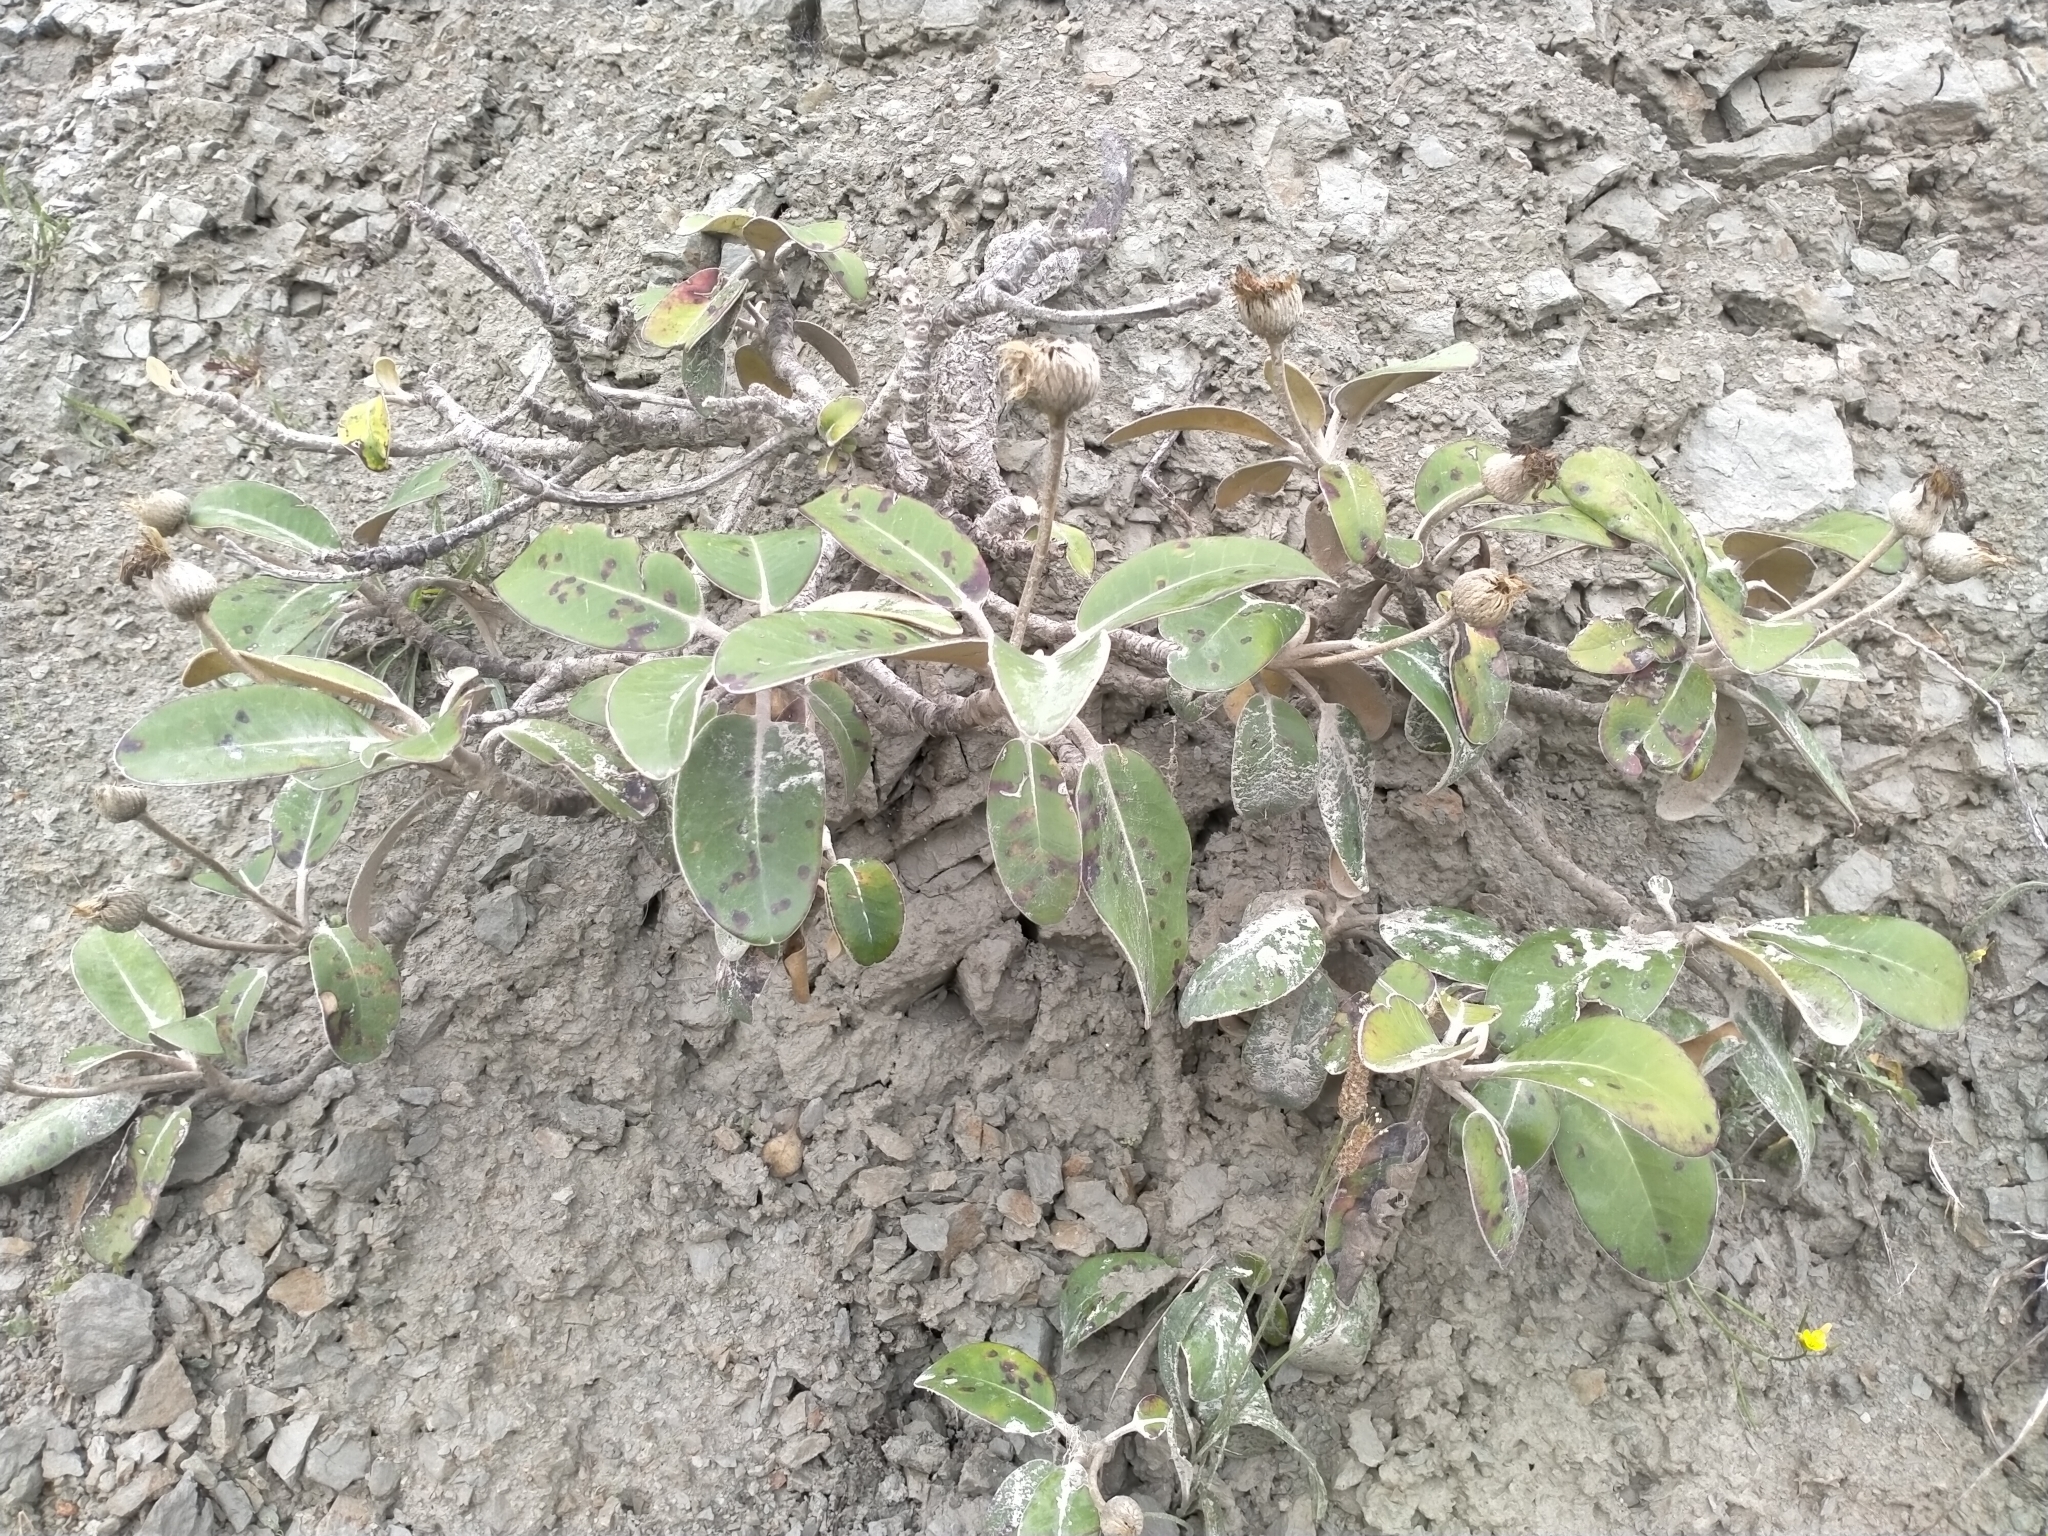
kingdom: Plantae
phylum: Tracheophyta
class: Magnoliopsida
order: Asterales
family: Asteraceae
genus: Pachystegia
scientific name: Pachystegia insignis
